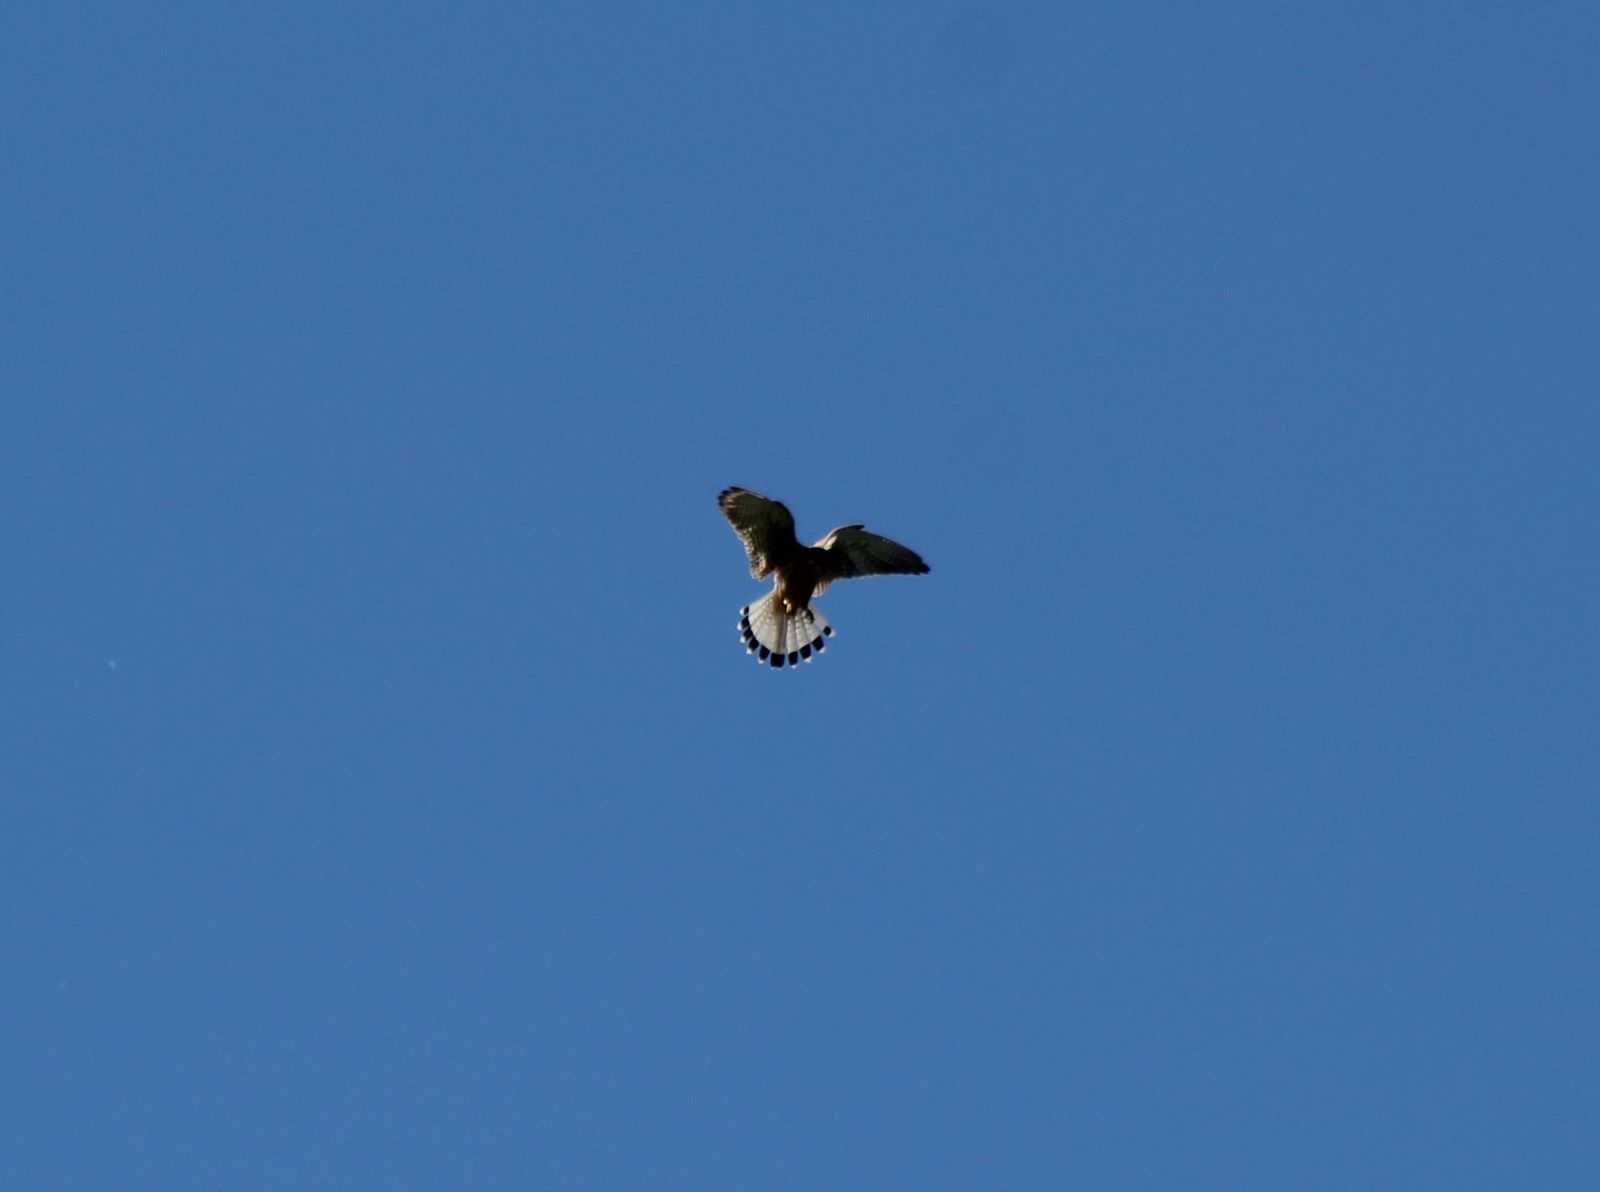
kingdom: Animalia
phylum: Chordata
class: Aves
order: Falconiformes
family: Falconidae
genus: Falco
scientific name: Falco tinnunculus
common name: Common kestrel
